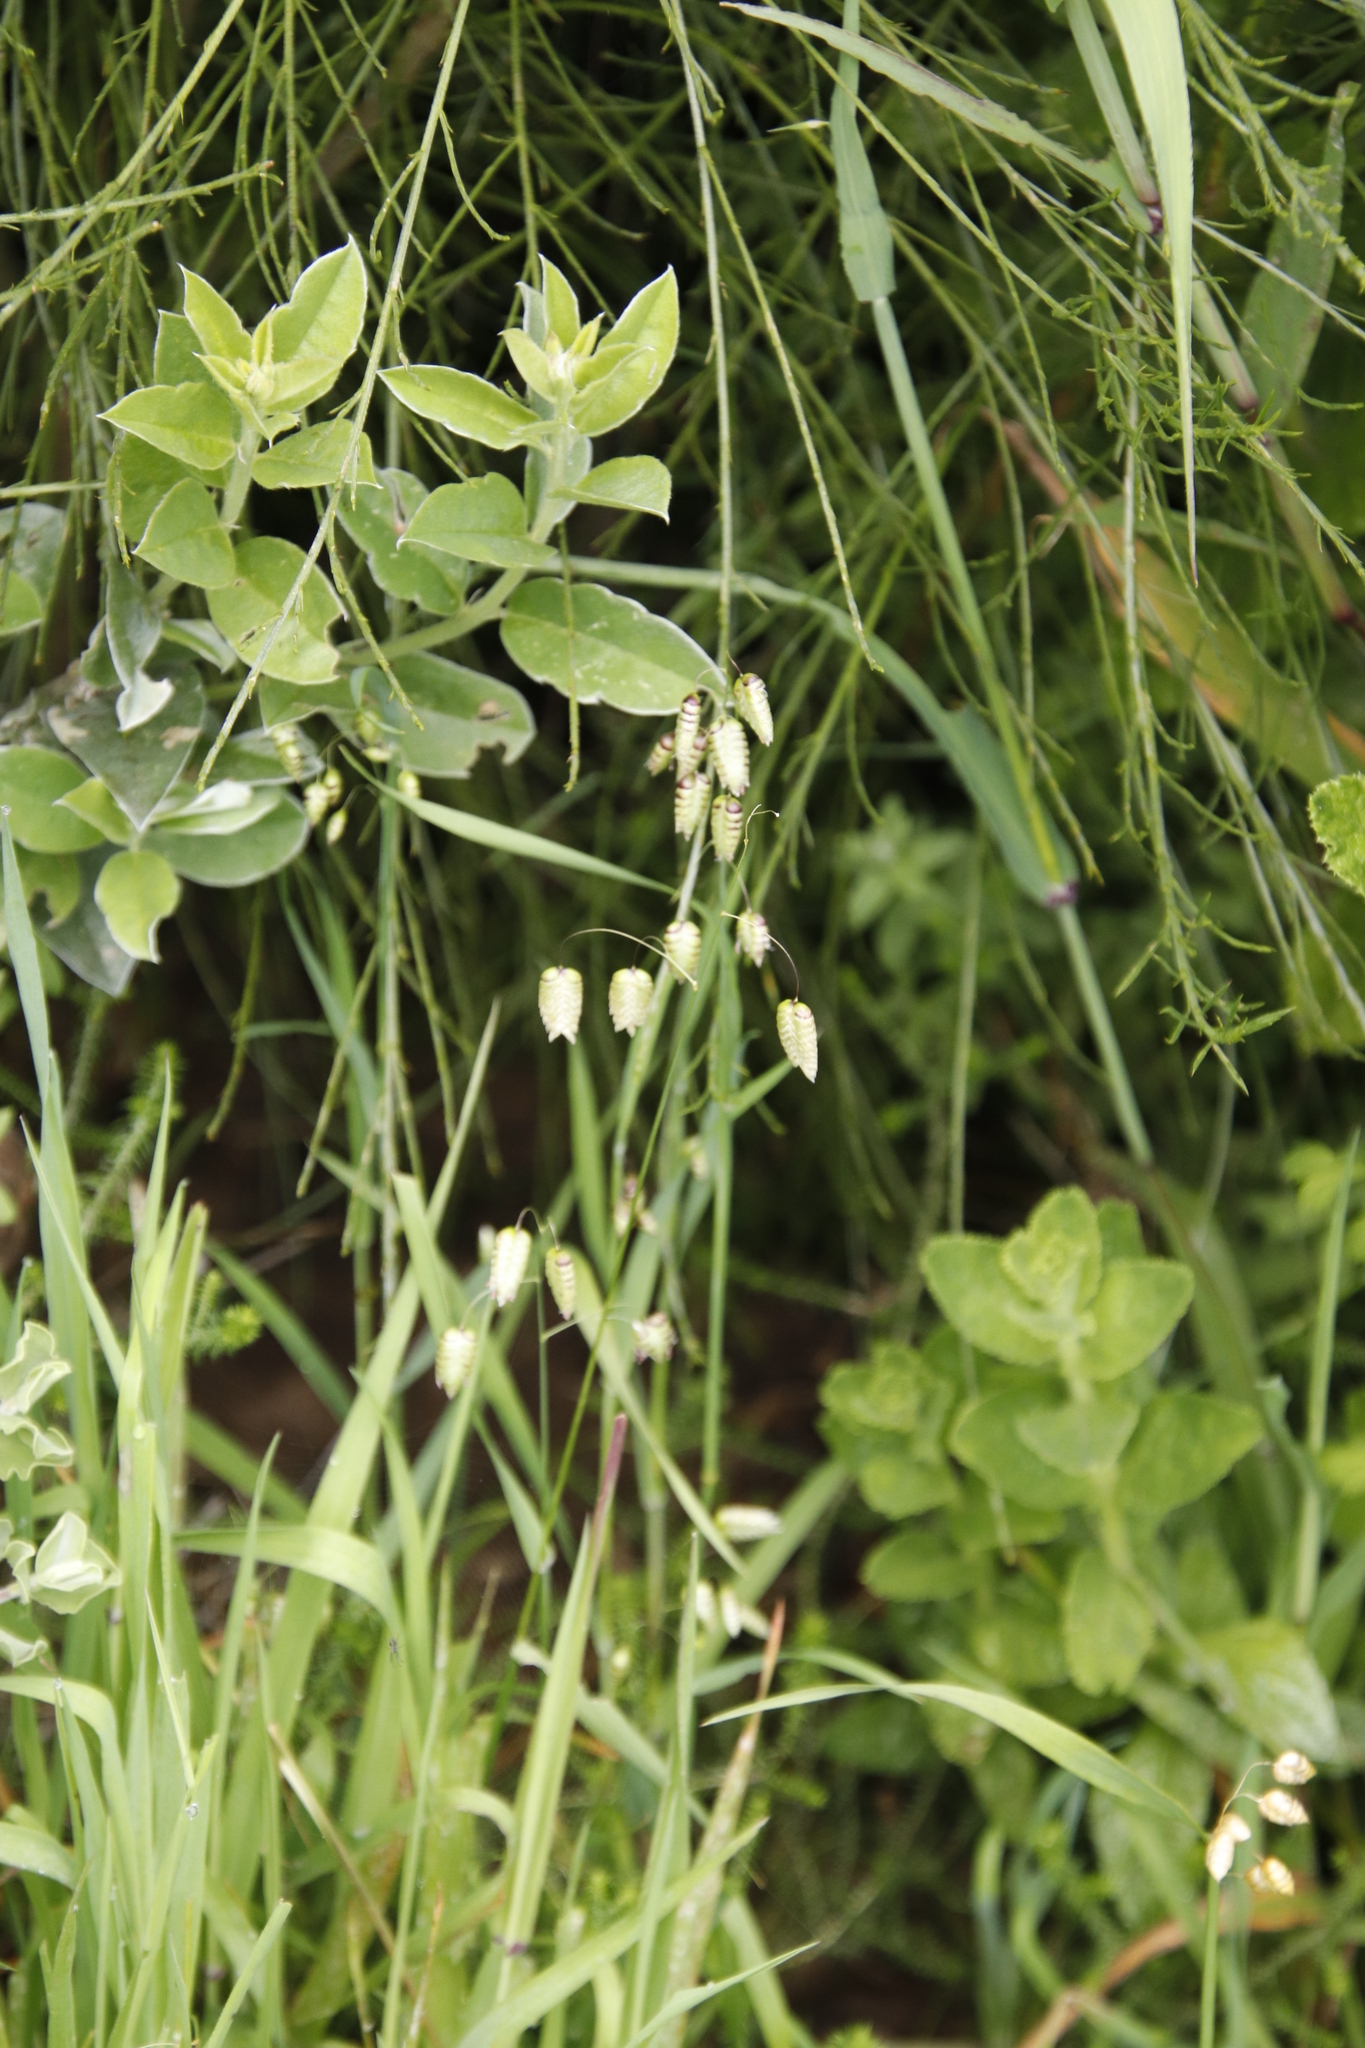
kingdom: Plantae
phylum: Tracheophyta
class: Liliopsida
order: Poales
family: Poaceae
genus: Briza
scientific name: Briza maxima
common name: Big quakinggrass
